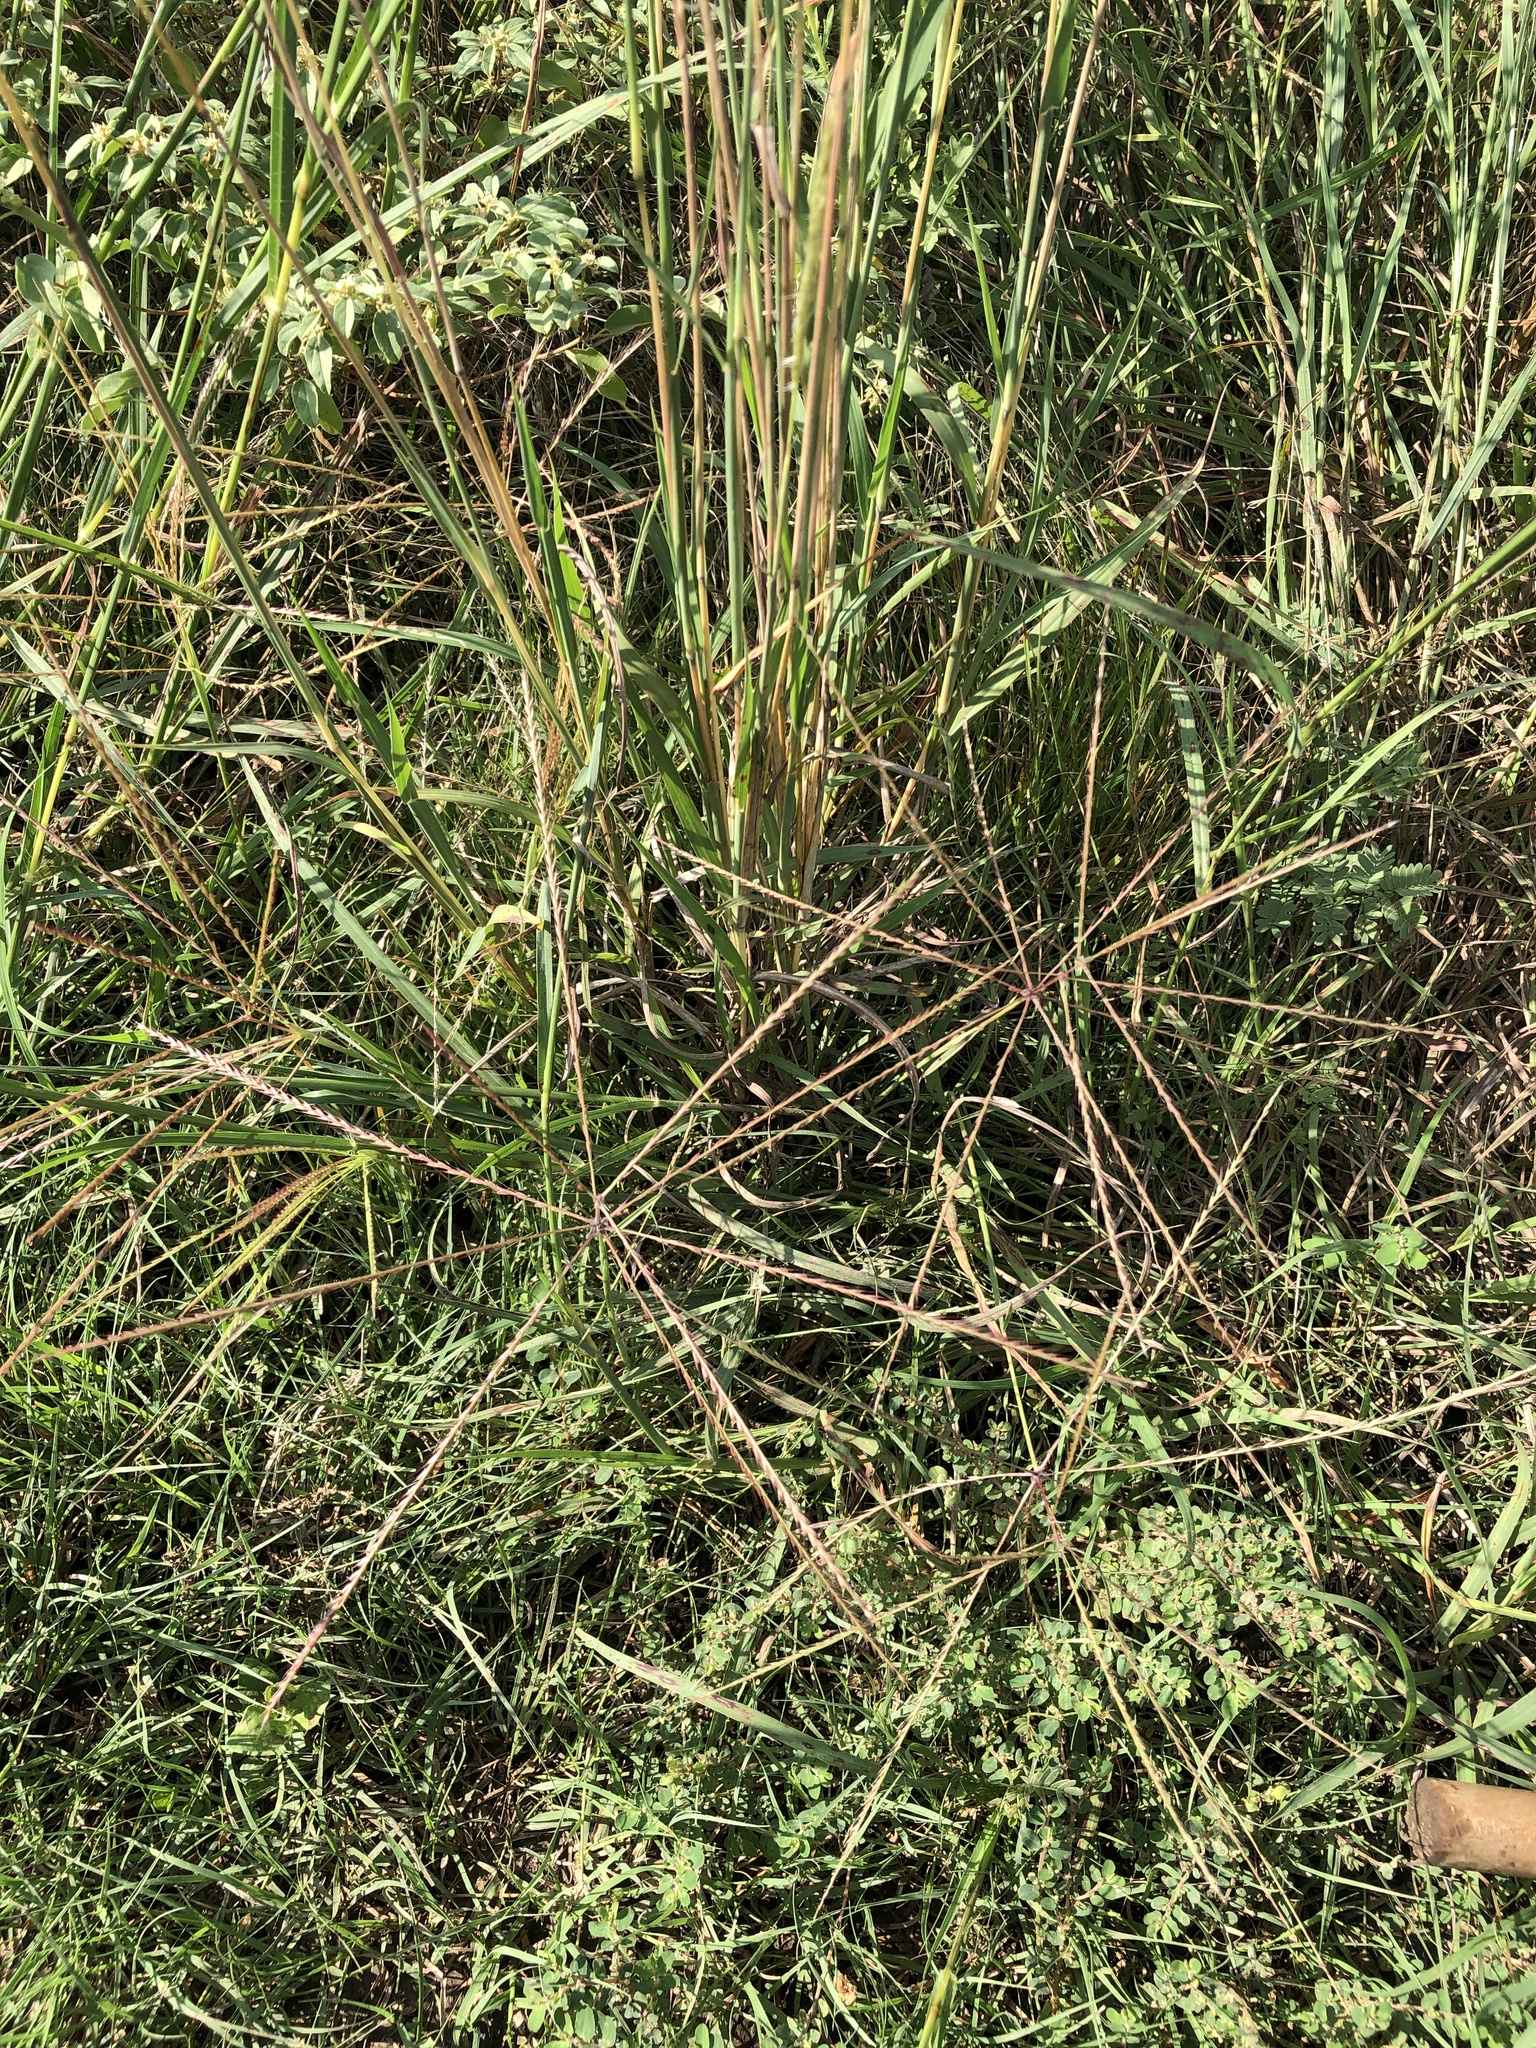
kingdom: Plantae
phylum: Tracheophyta
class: Liliopsida
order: Poales
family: Poaceae
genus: Chloris
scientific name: Chloris verticillata
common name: Tumble windmill grass
